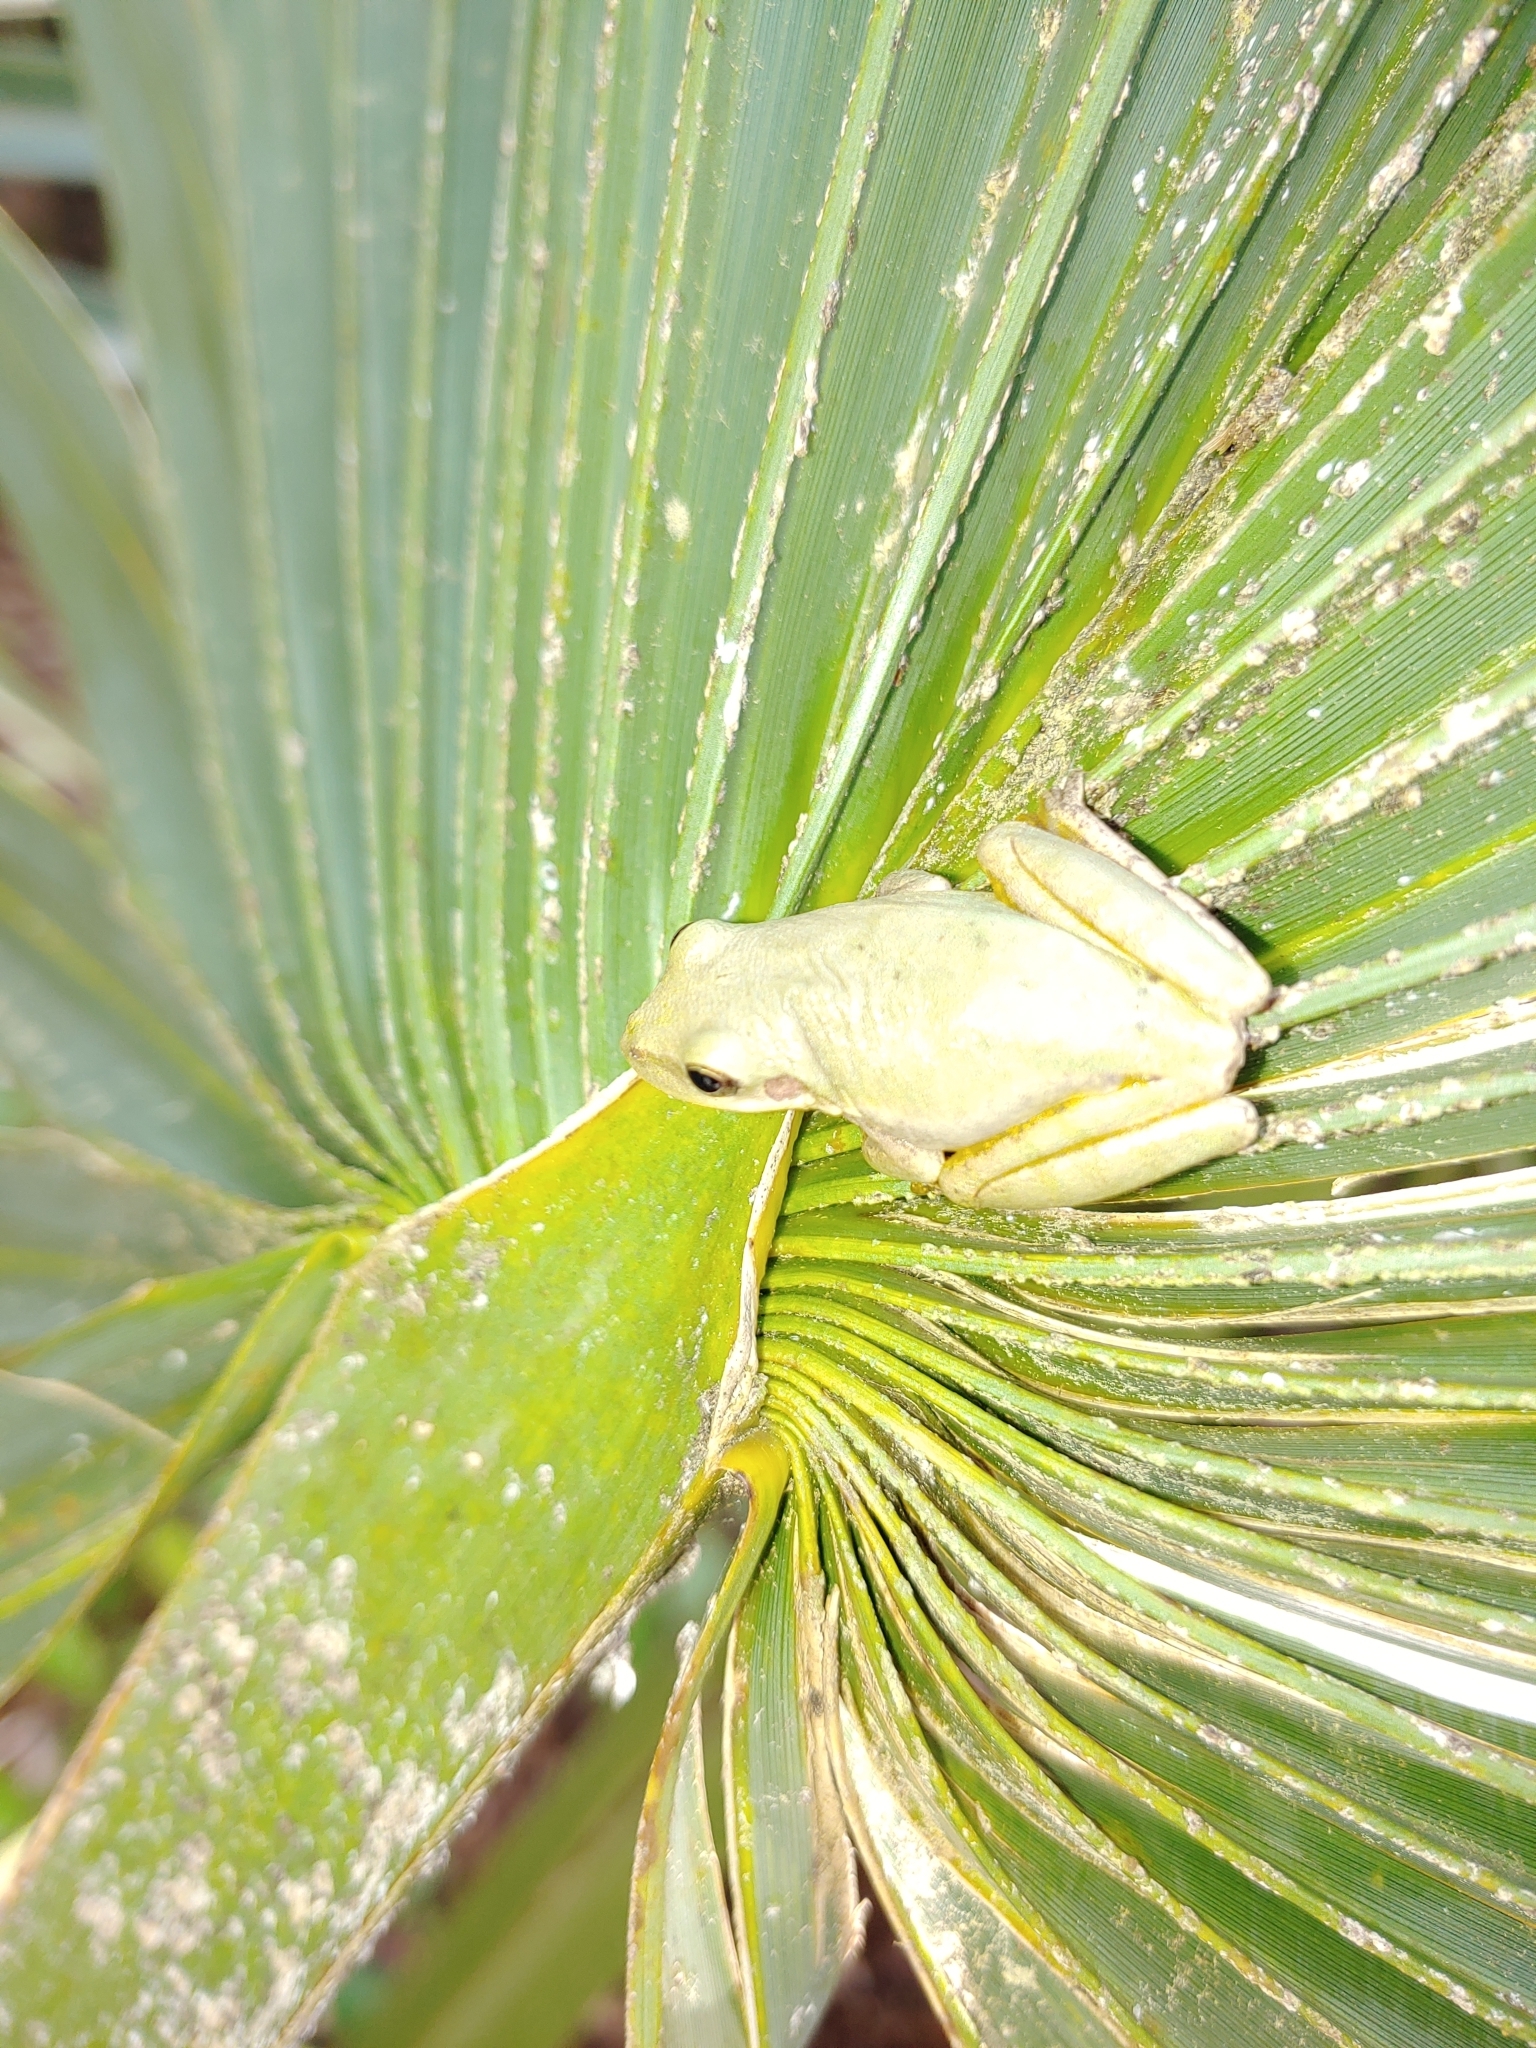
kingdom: Animalia
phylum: Chordata
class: Amphibia
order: Anura
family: Hylidae
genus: Dryophytes
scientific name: Dryophytes squirellus
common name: Squirrel treefrog
